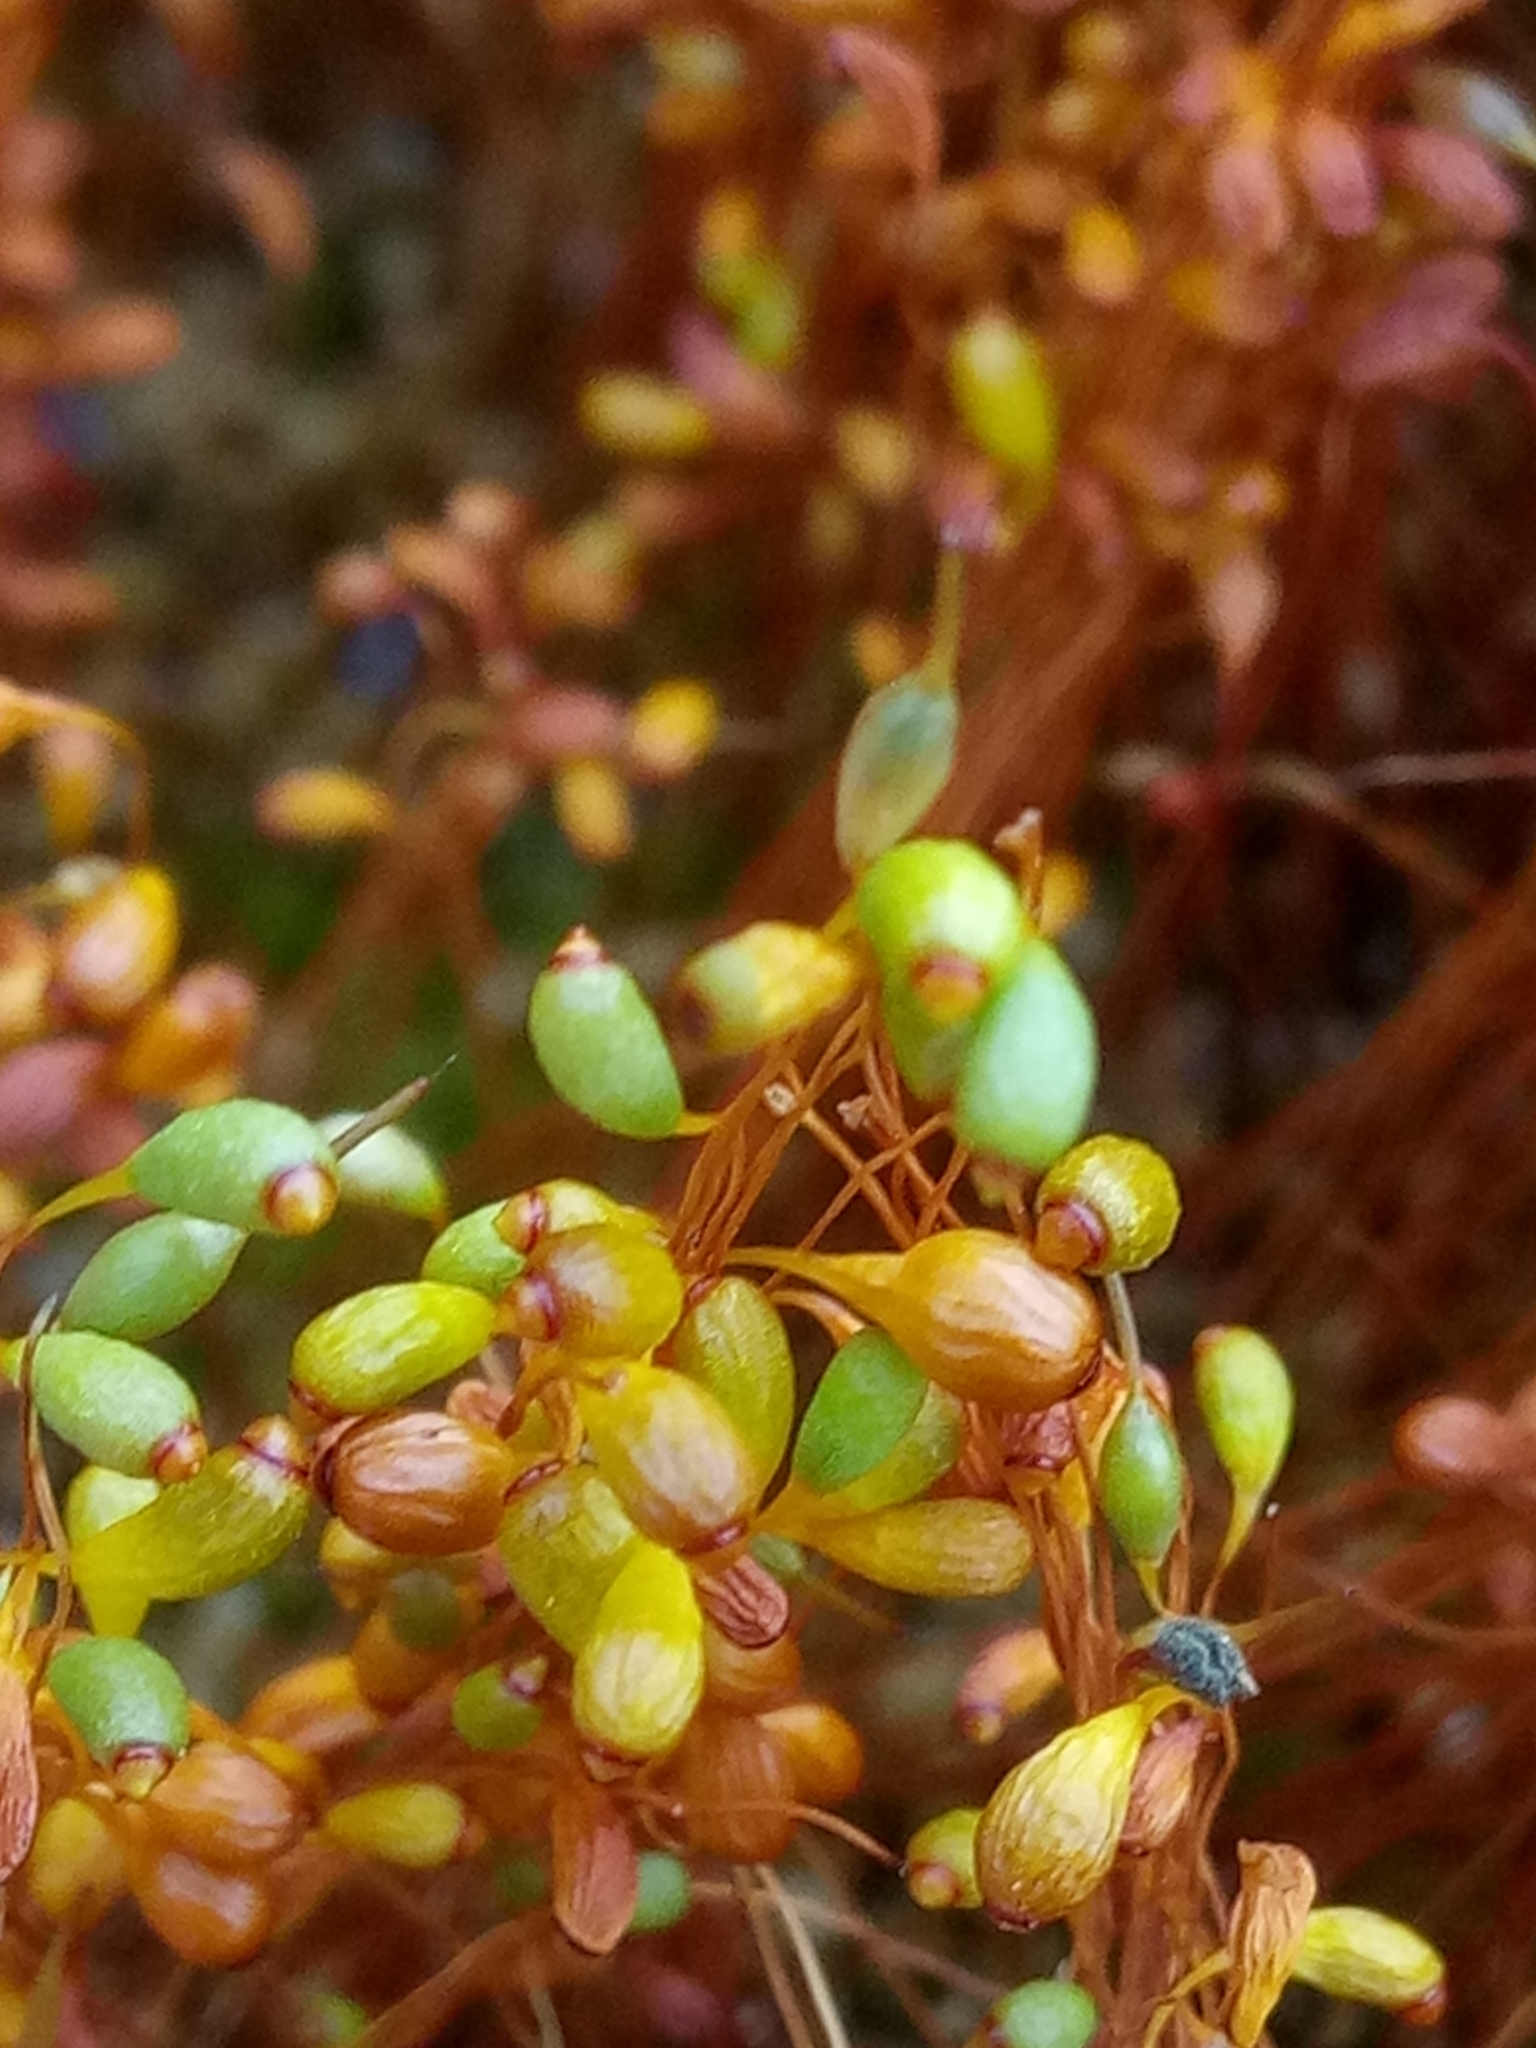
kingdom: Plantae
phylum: Bryophyta
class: Bryopsida
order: Funariales
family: Funariaceae
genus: Funaria
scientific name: Funaria hygrometrica
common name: Common cord moss
